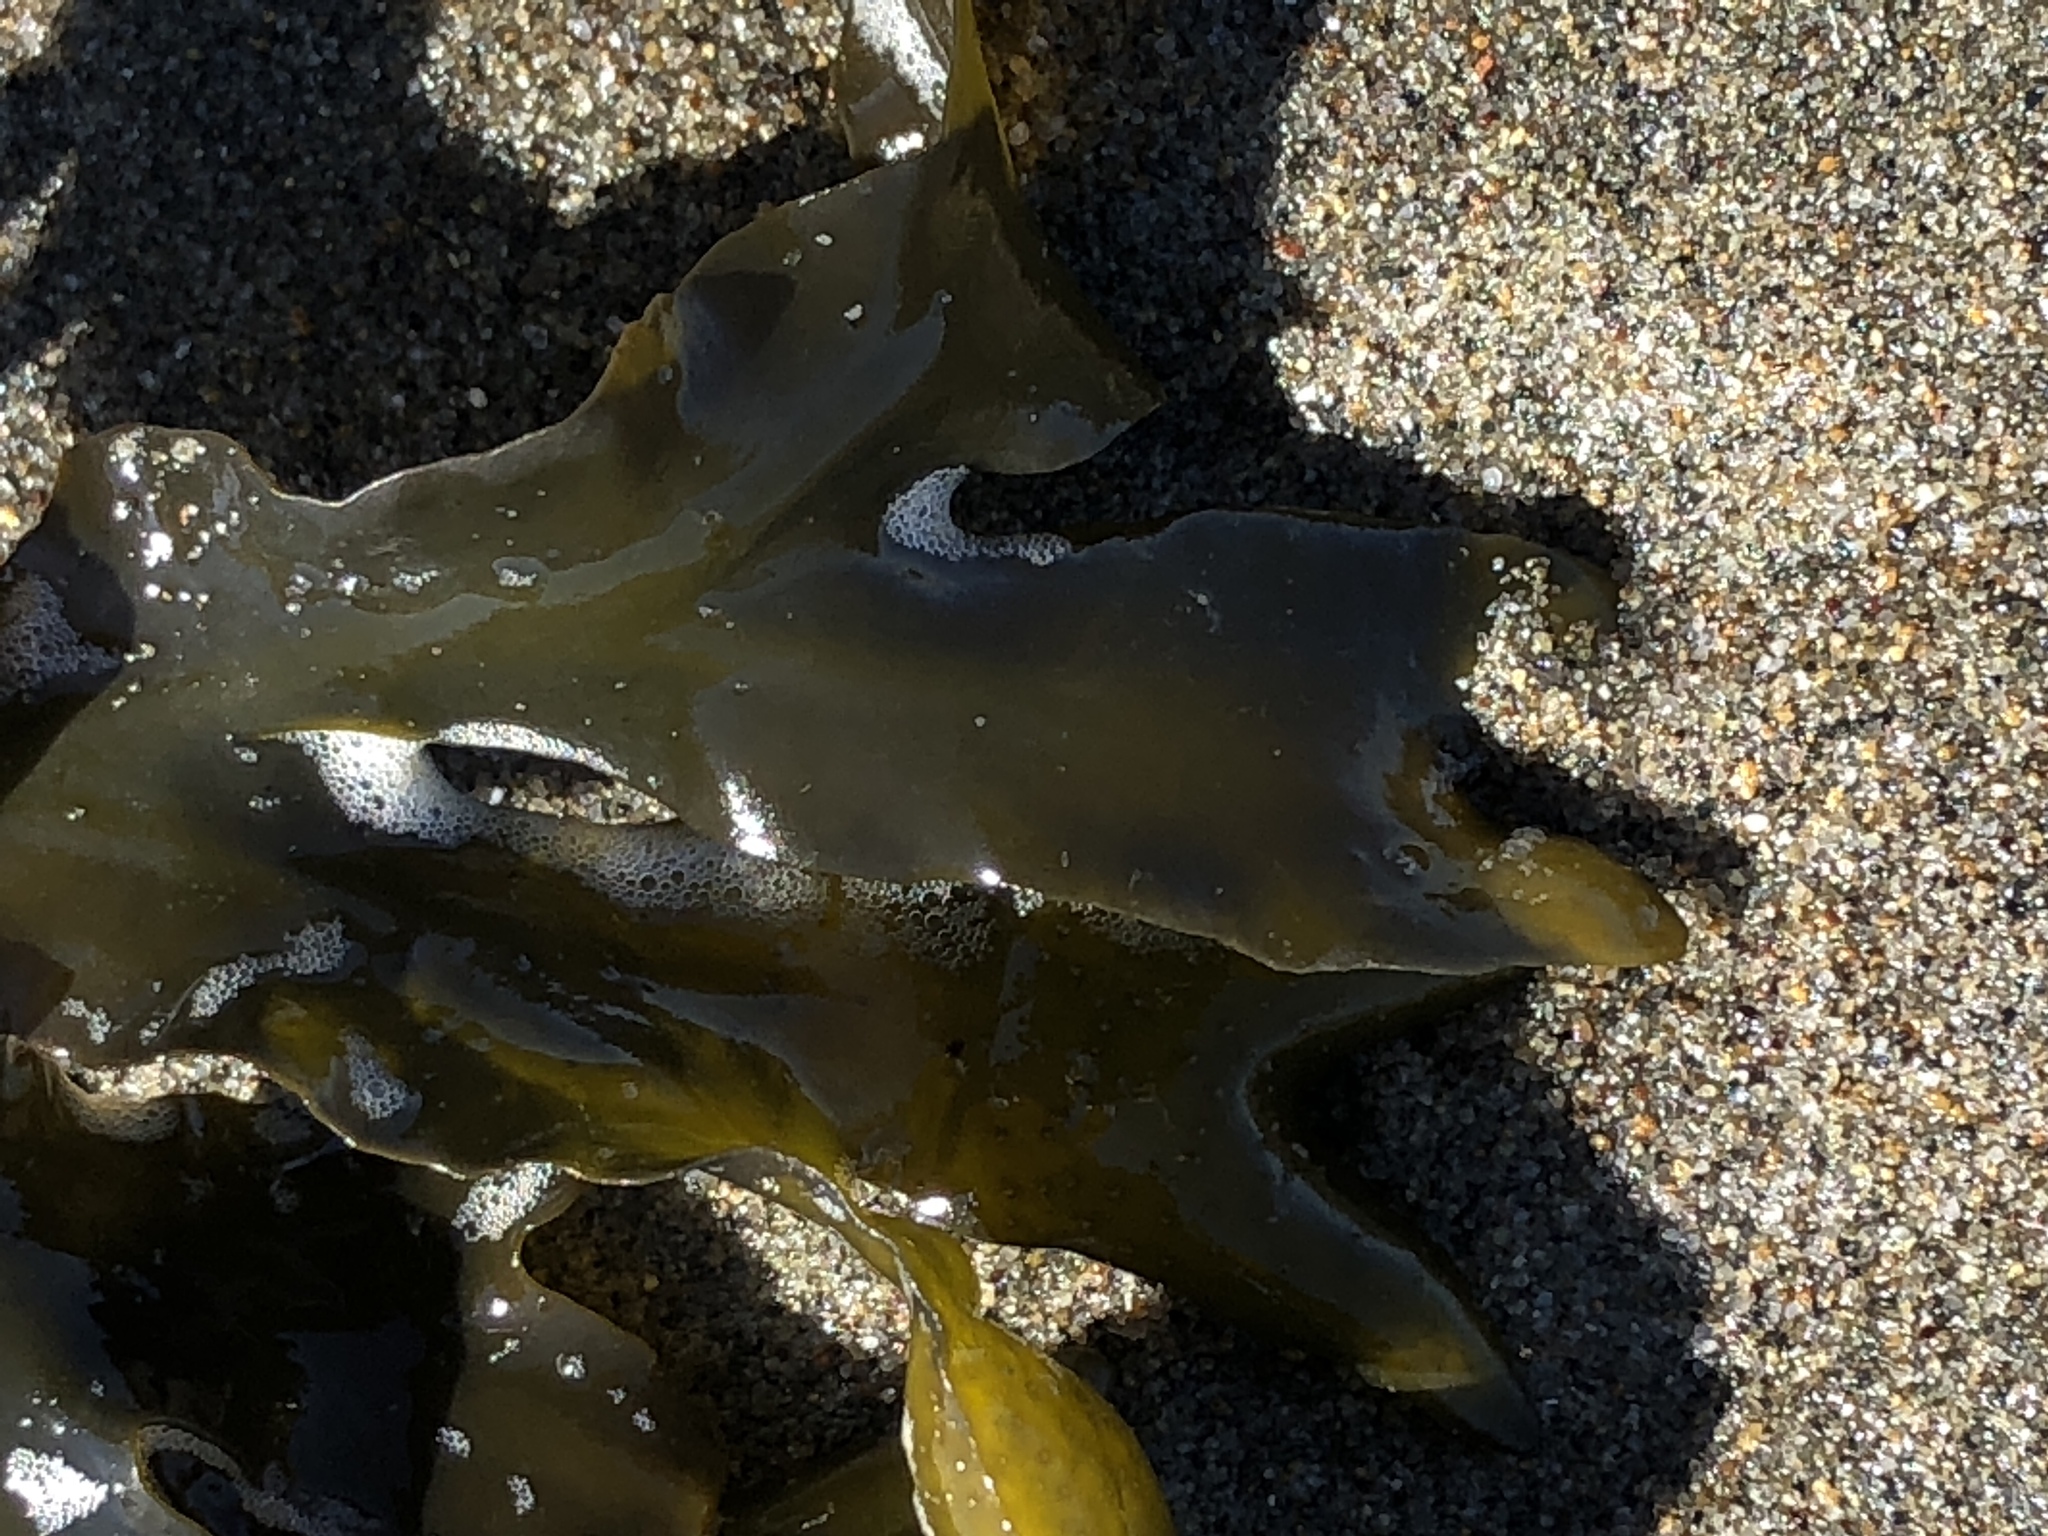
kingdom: Chromista
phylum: Ochrophyta
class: Phaeophyceae
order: Fucales
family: Fucaceae
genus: Fucus
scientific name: Fucus distichus
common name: Rockweed
